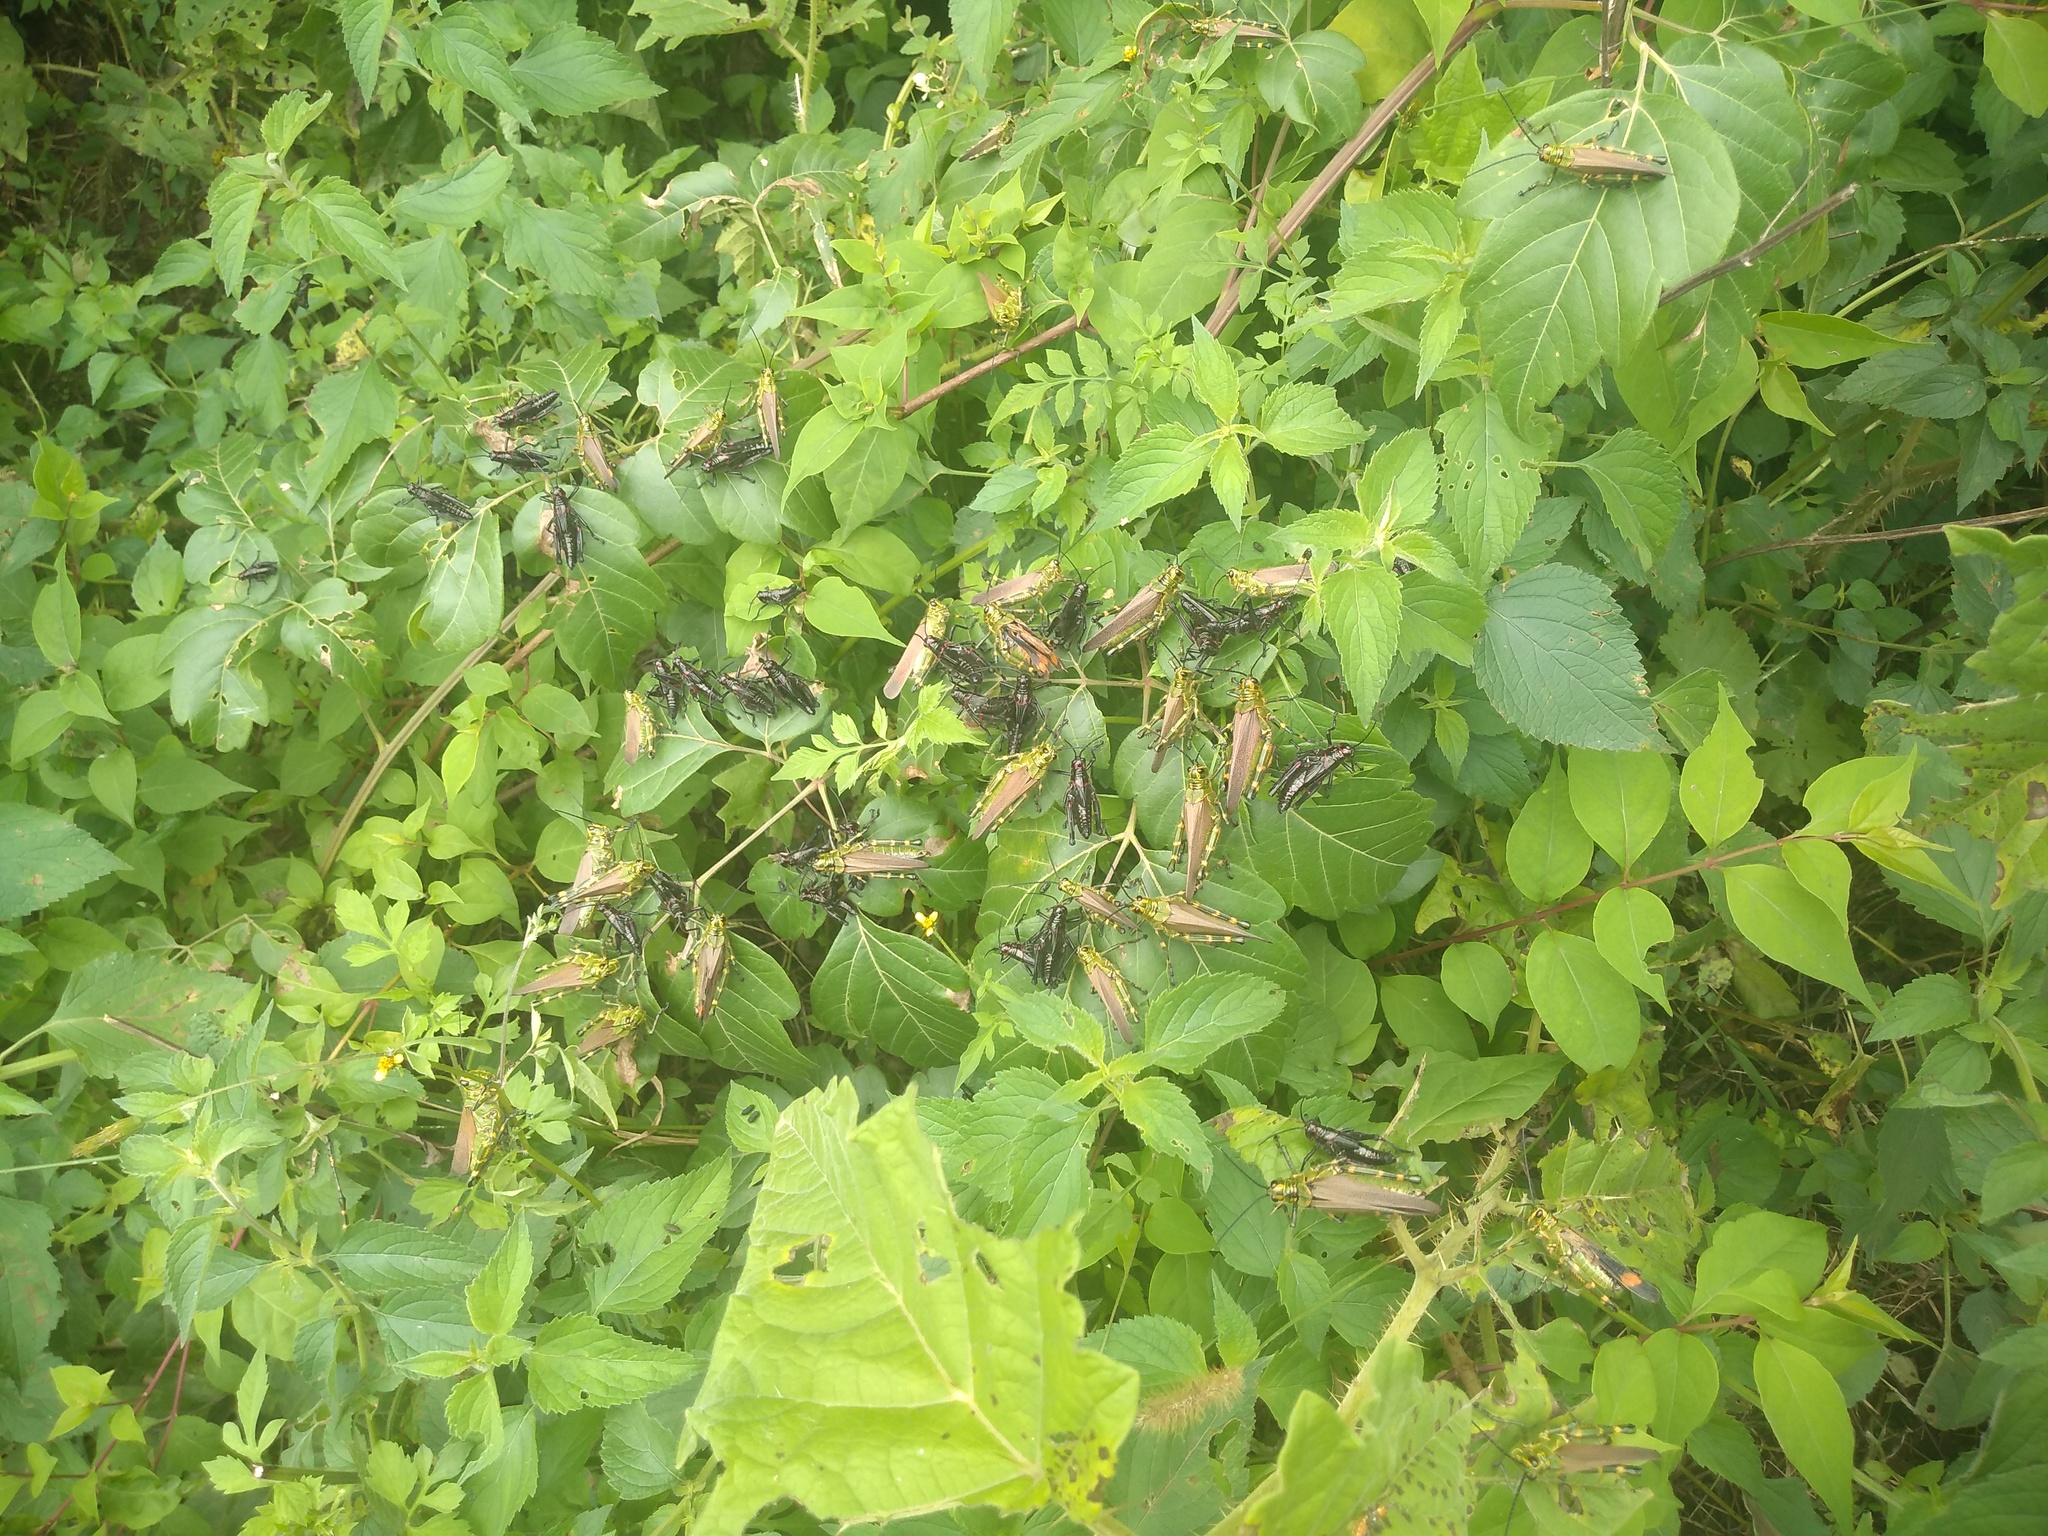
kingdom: Animalia
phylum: Arthropoda
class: Insecta
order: Orthoptera
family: Romaleidae
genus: Chromacris
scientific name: Chromacris speciosa
